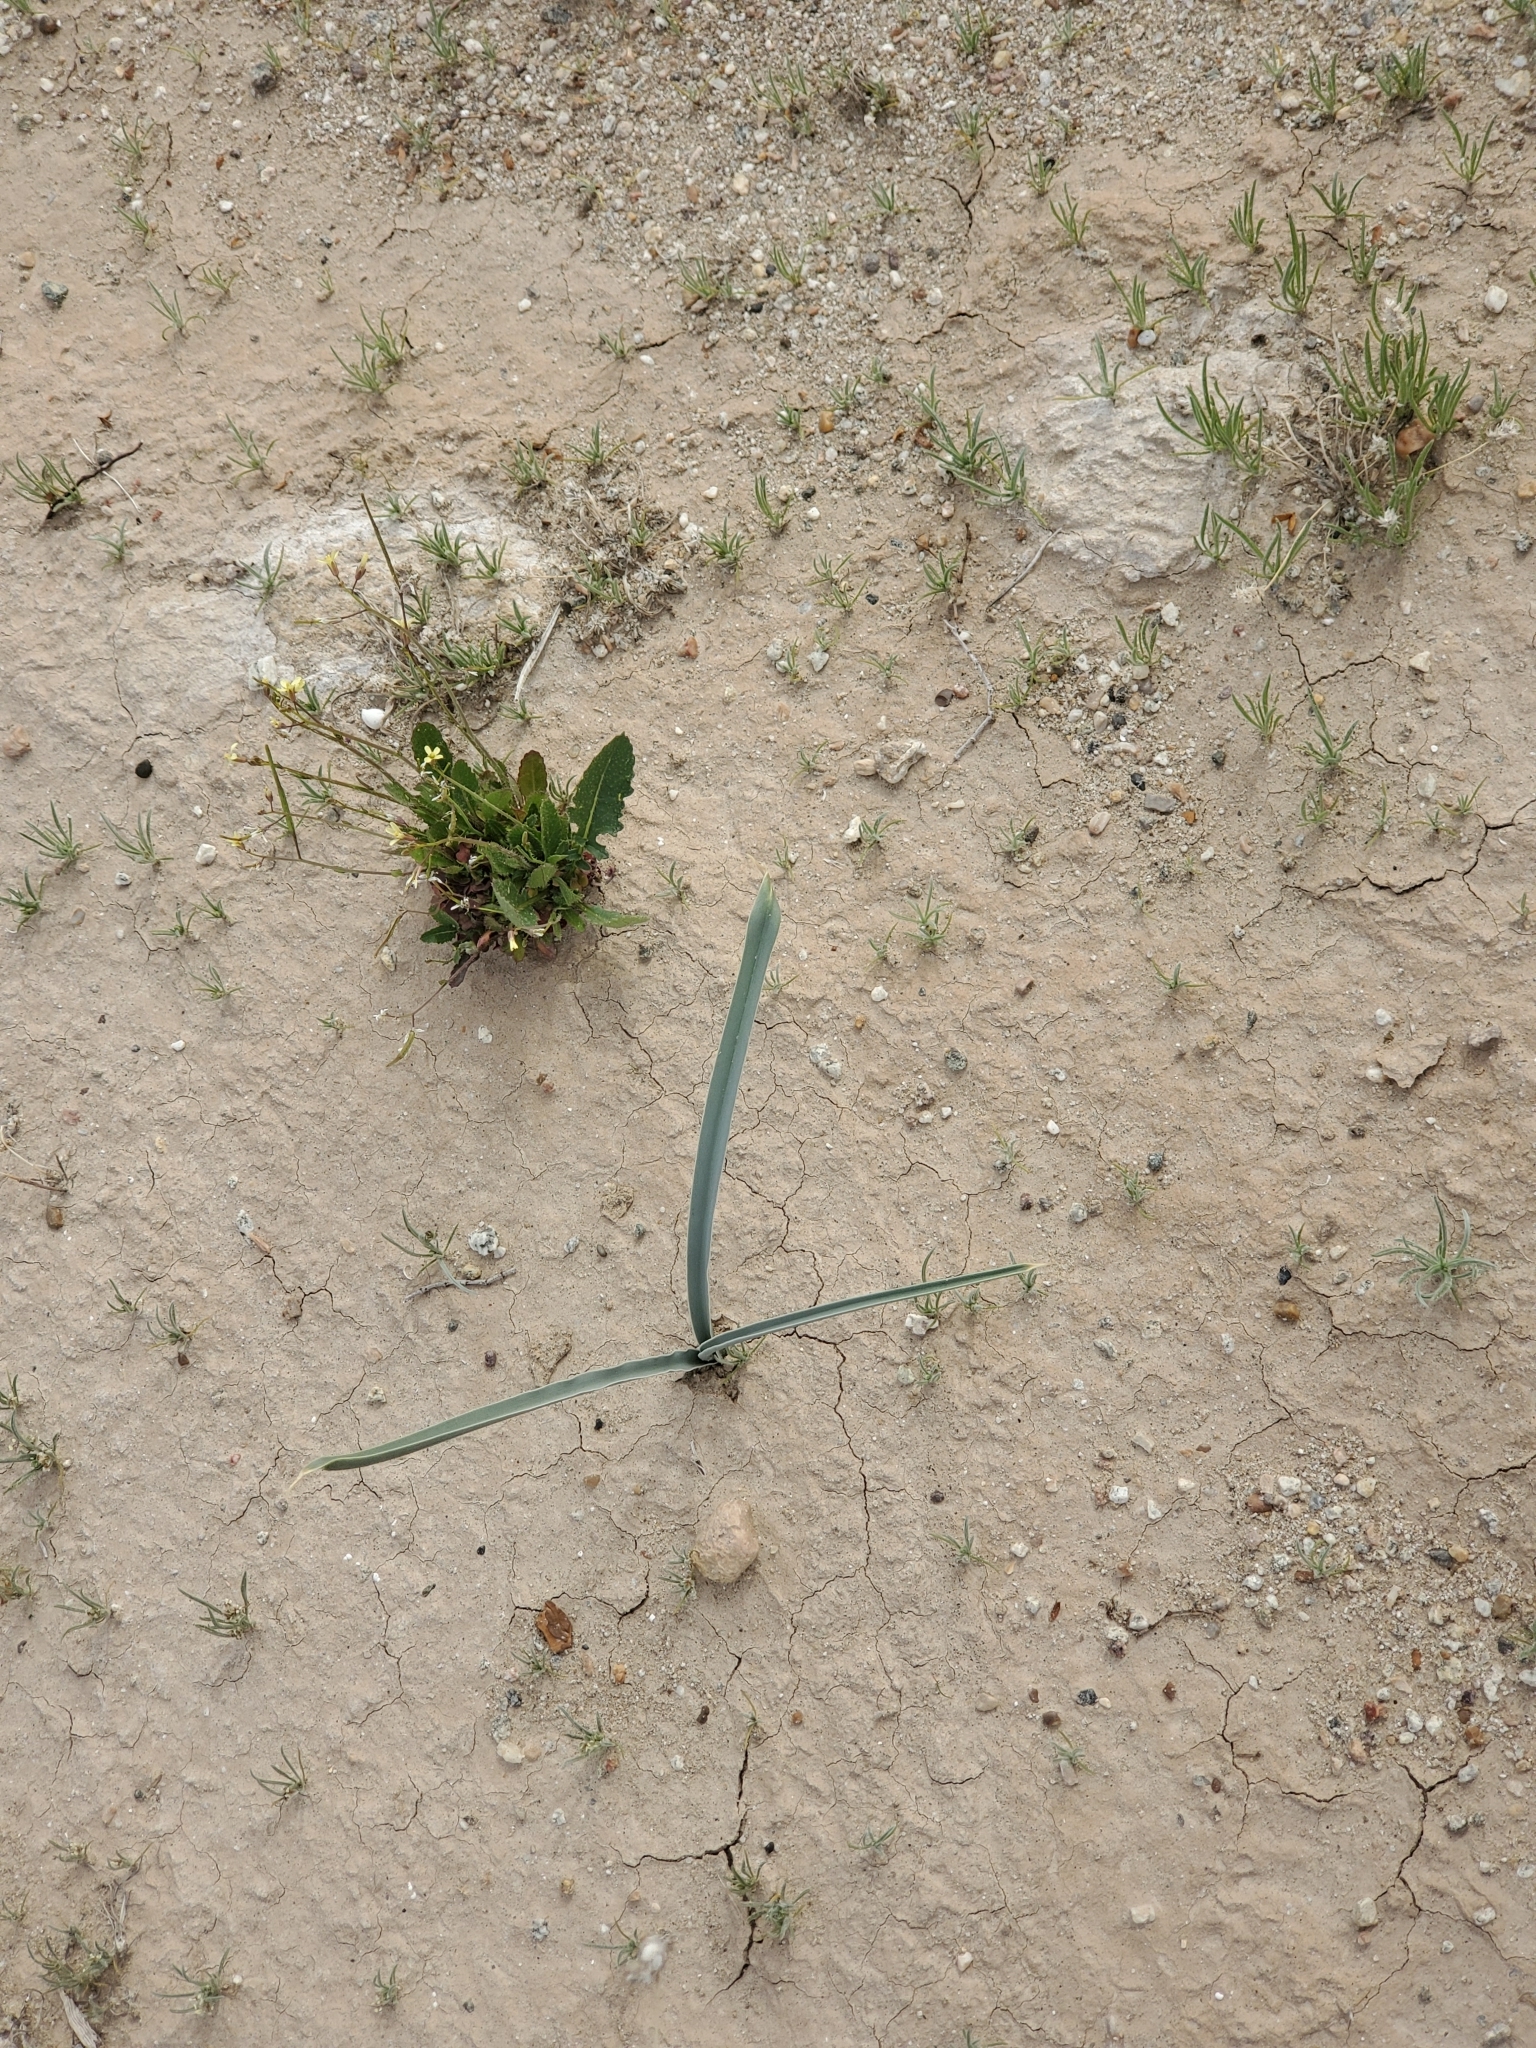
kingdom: Plantae
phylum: Tracheophyta
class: Liliopsida
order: Asparagales
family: Asparagaceae
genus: Hesperocallis
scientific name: Hesperocallis undulata
